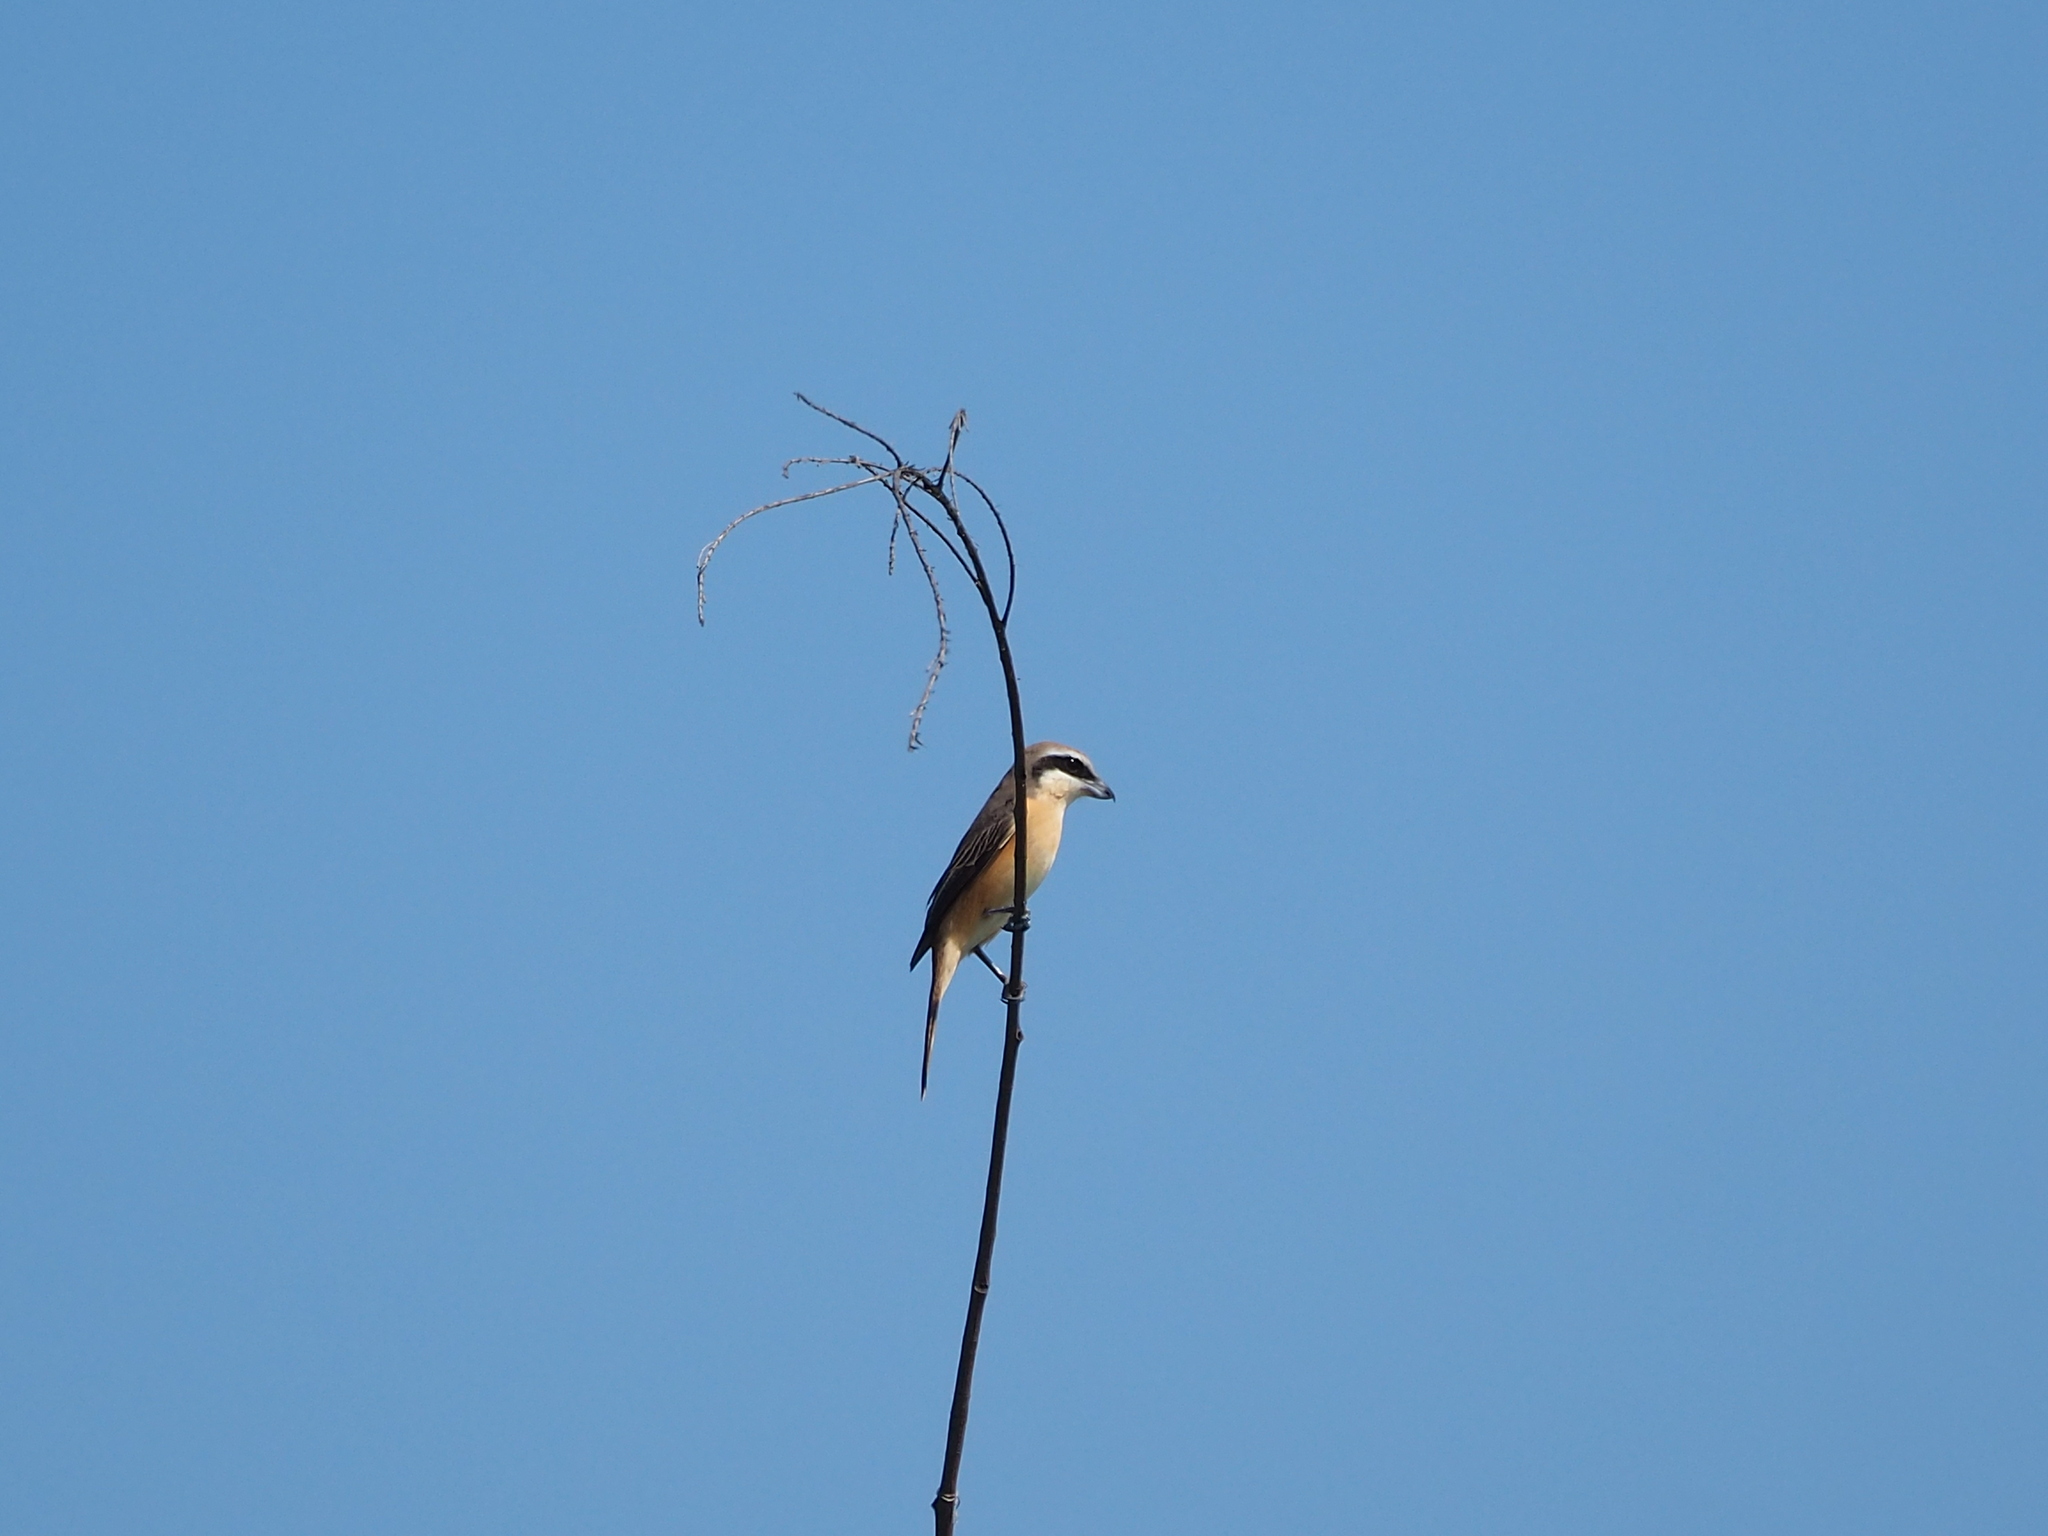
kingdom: Animalia
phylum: Chordata
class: Aves
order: Passeriformes
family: Laniidae
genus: Lanius
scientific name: Lanius cristatus
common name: Brown shrike
